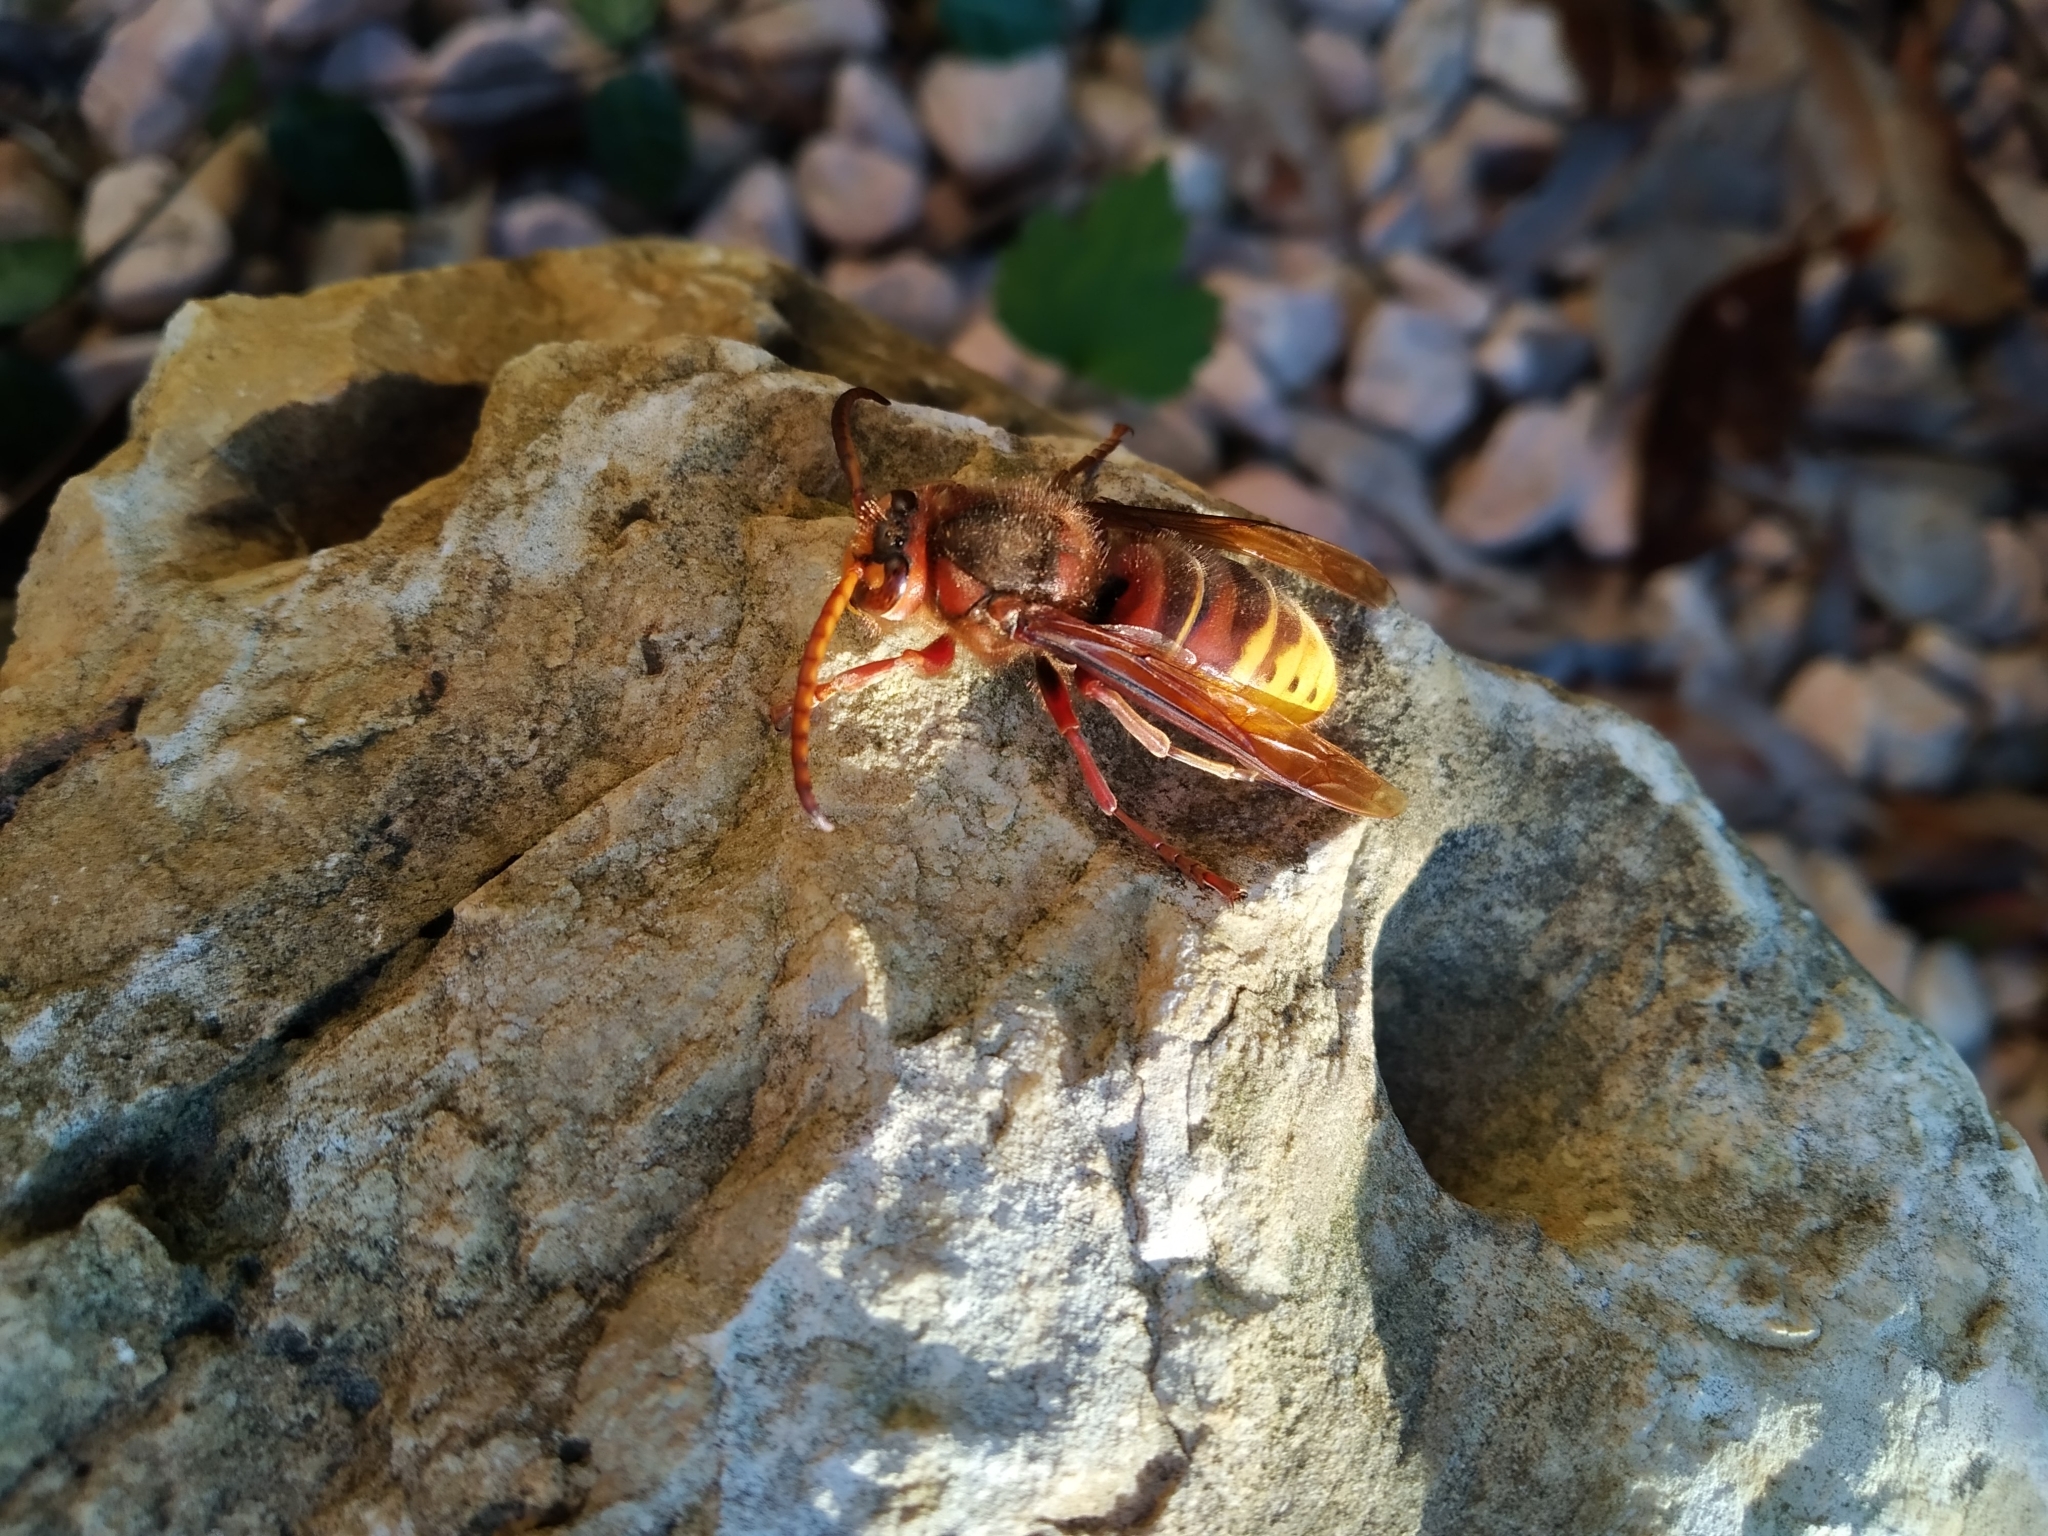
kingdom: Animalia
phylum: Arthropoda
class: Insecta
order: Hymenoptera
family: Vespidae
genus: Vespa
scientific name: Vespa crabro
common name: Hornet
